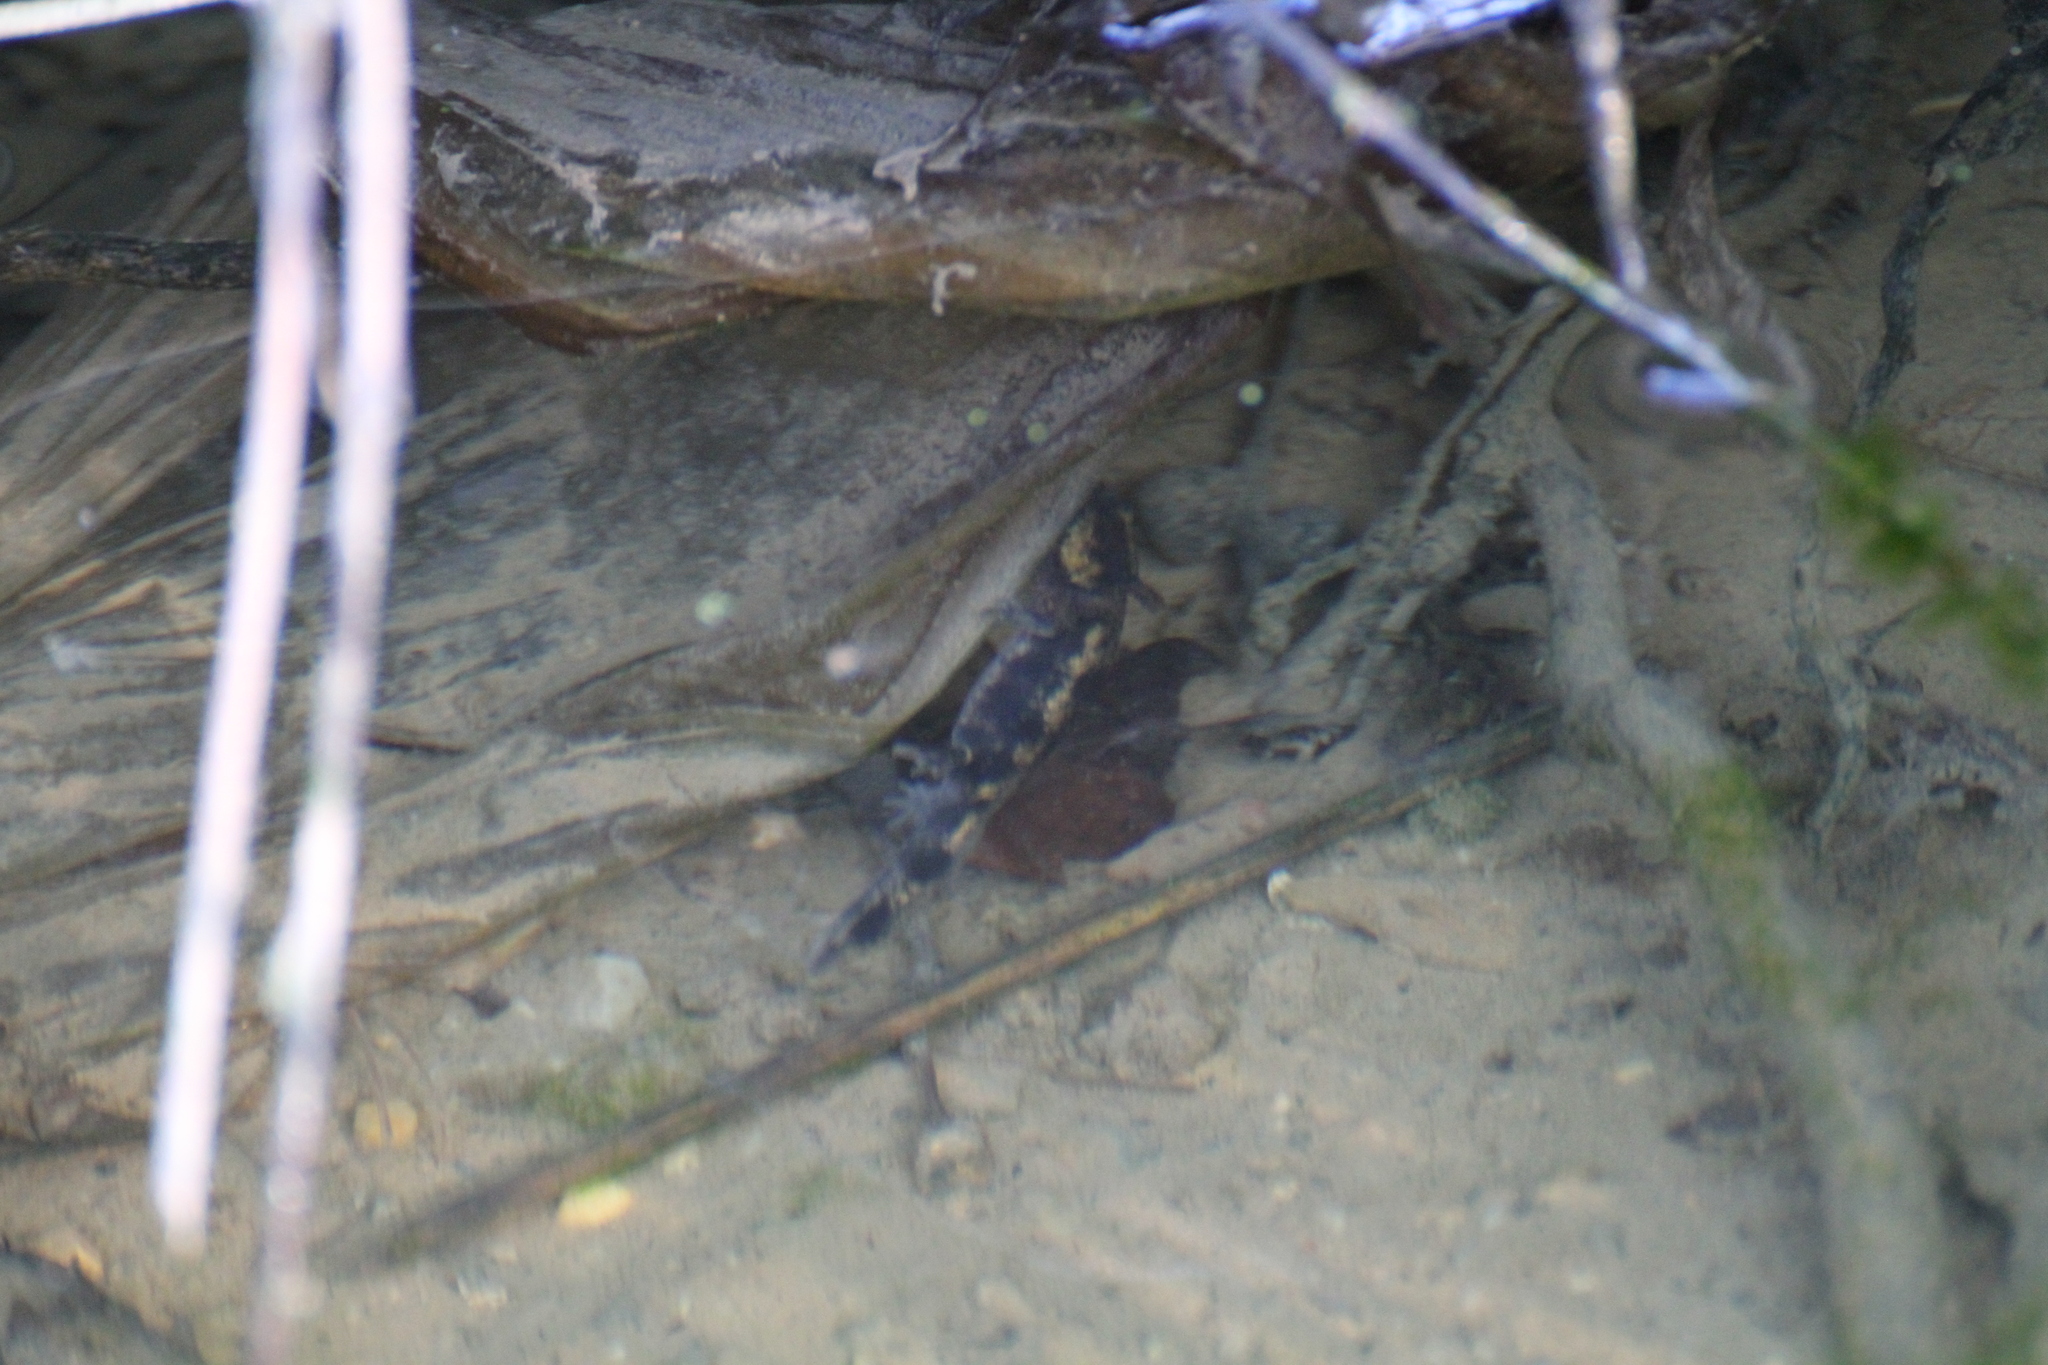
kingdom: Animalia
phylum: Chordata
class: Amphibia
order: Caudata
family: Salamandridae
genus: Salamandra
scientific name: Salamandra salamandra
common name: Fire salamander
